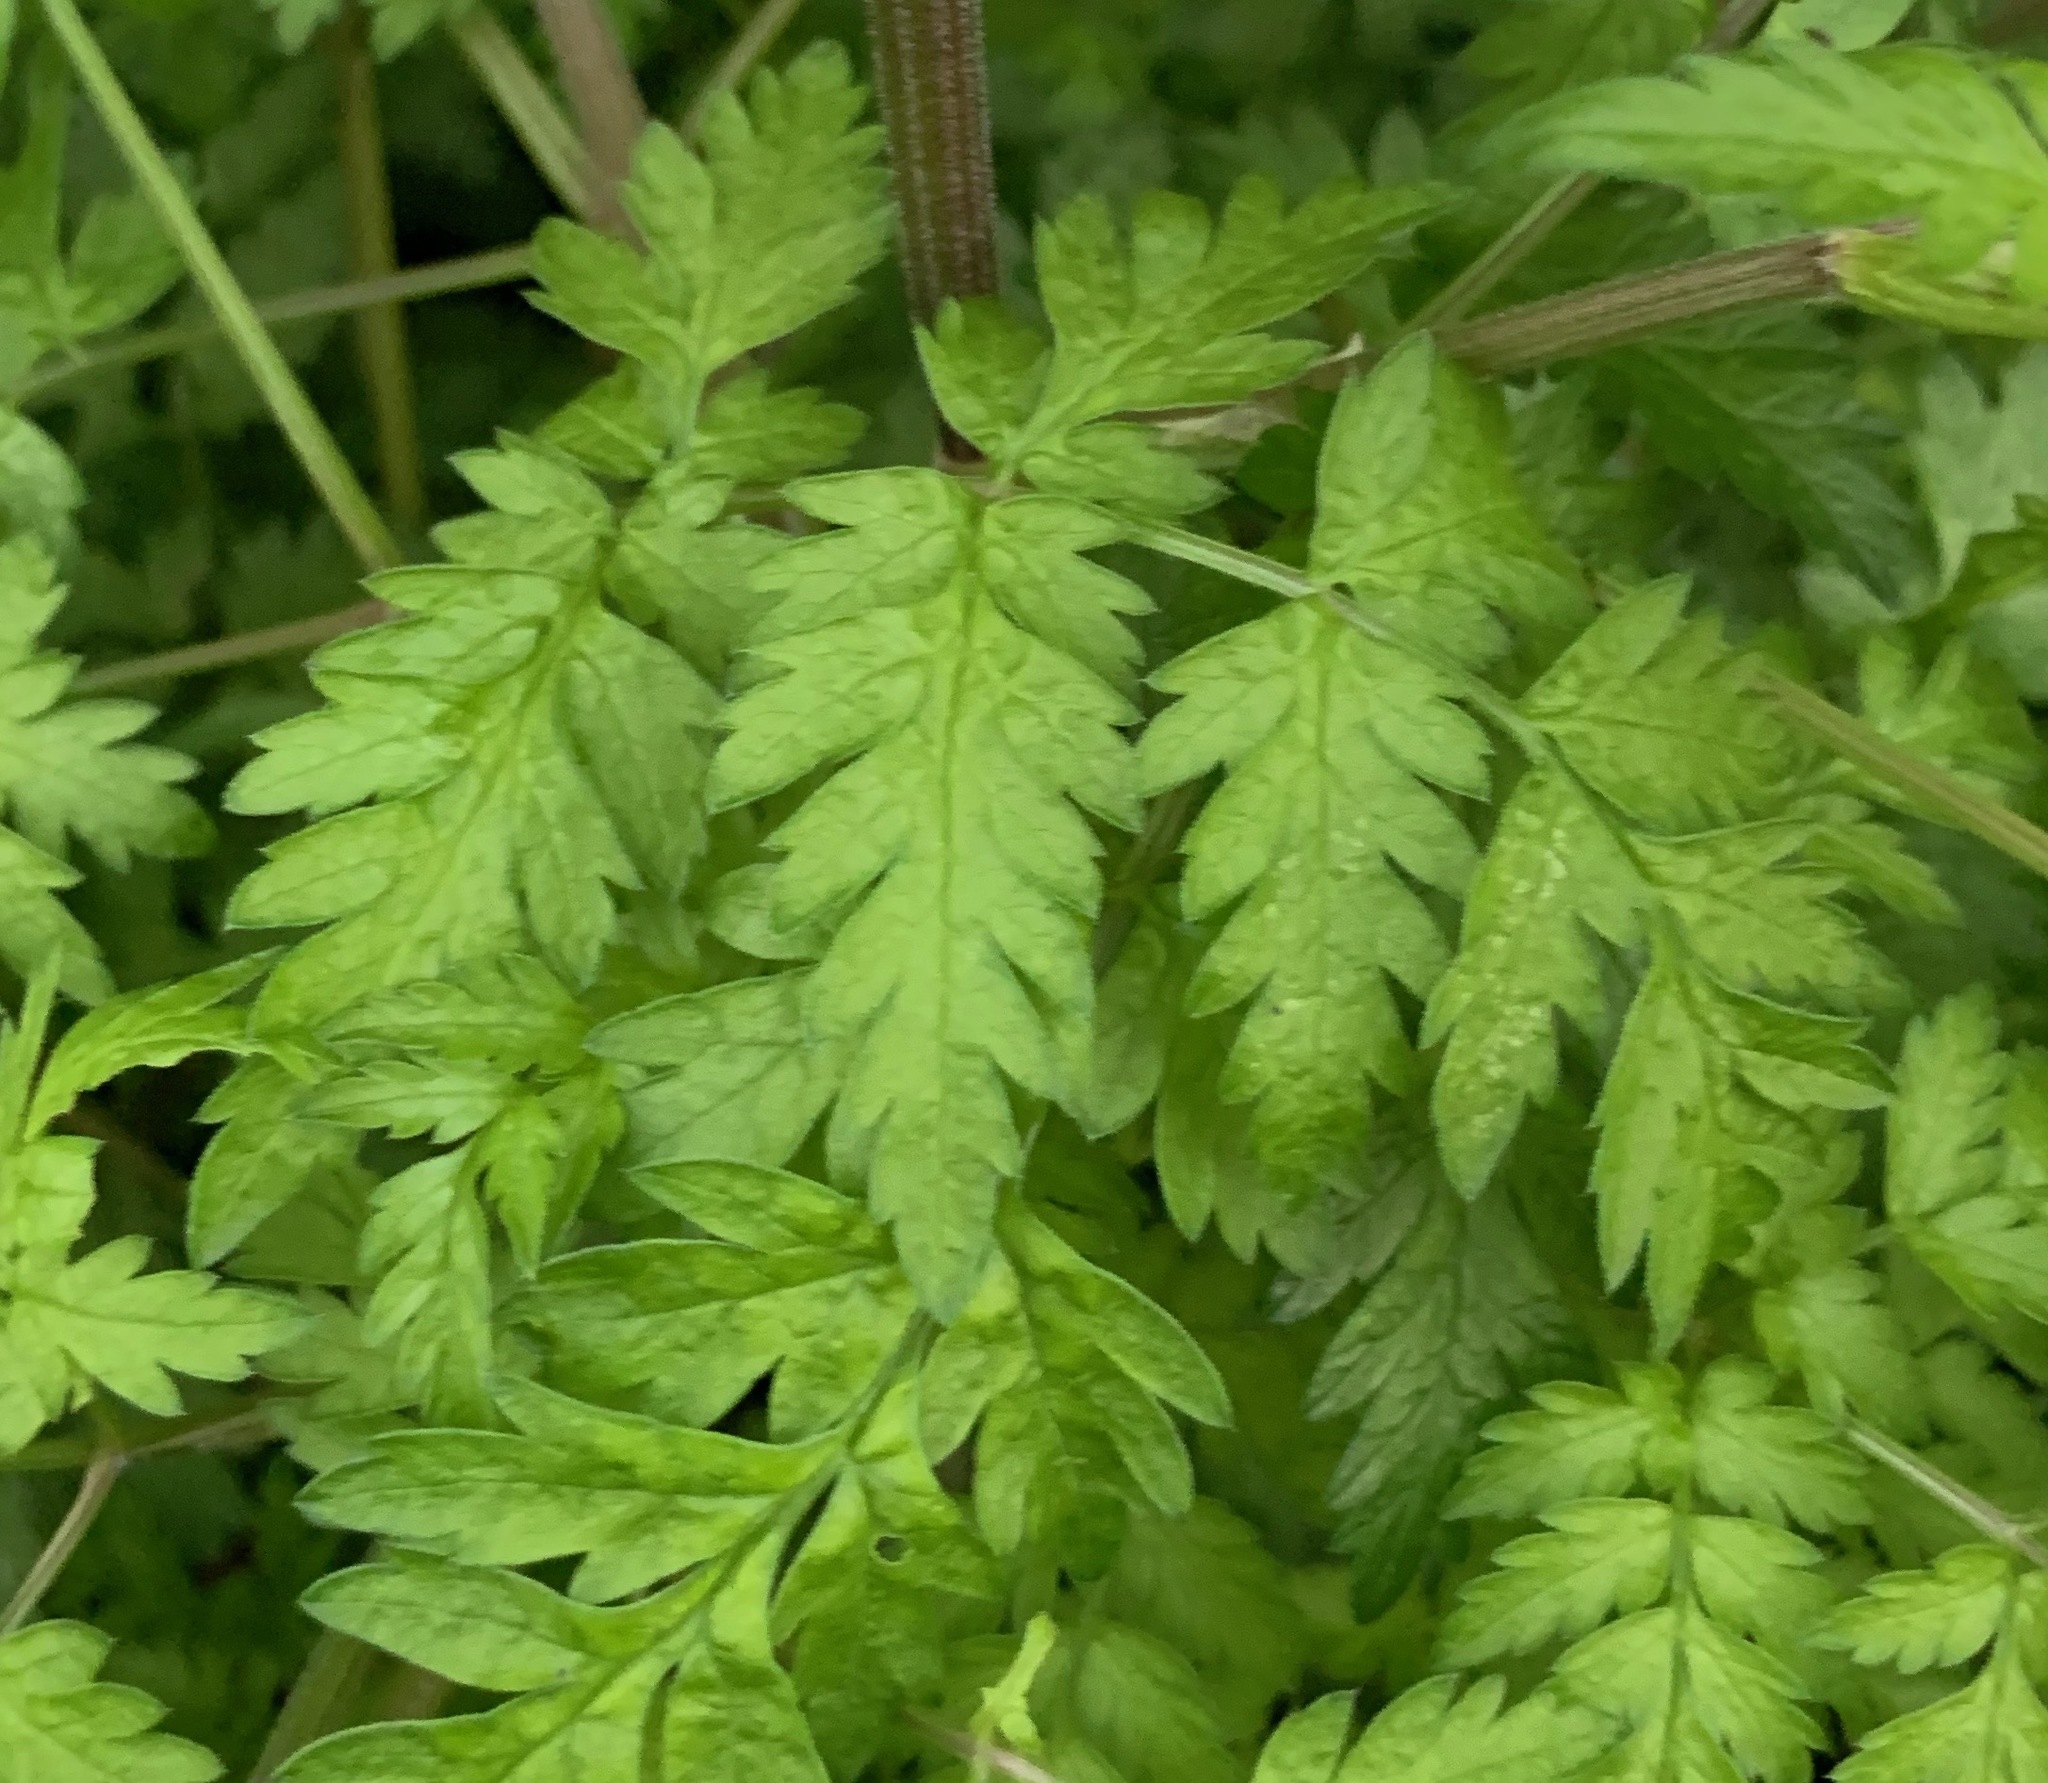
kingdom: Plantae
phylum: Tracheophyta
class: Magnoliopsida
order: Apiales
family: Apiaceae
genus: Anthriscus
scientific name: Anthriscus sylvestris
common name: Cow parsley
